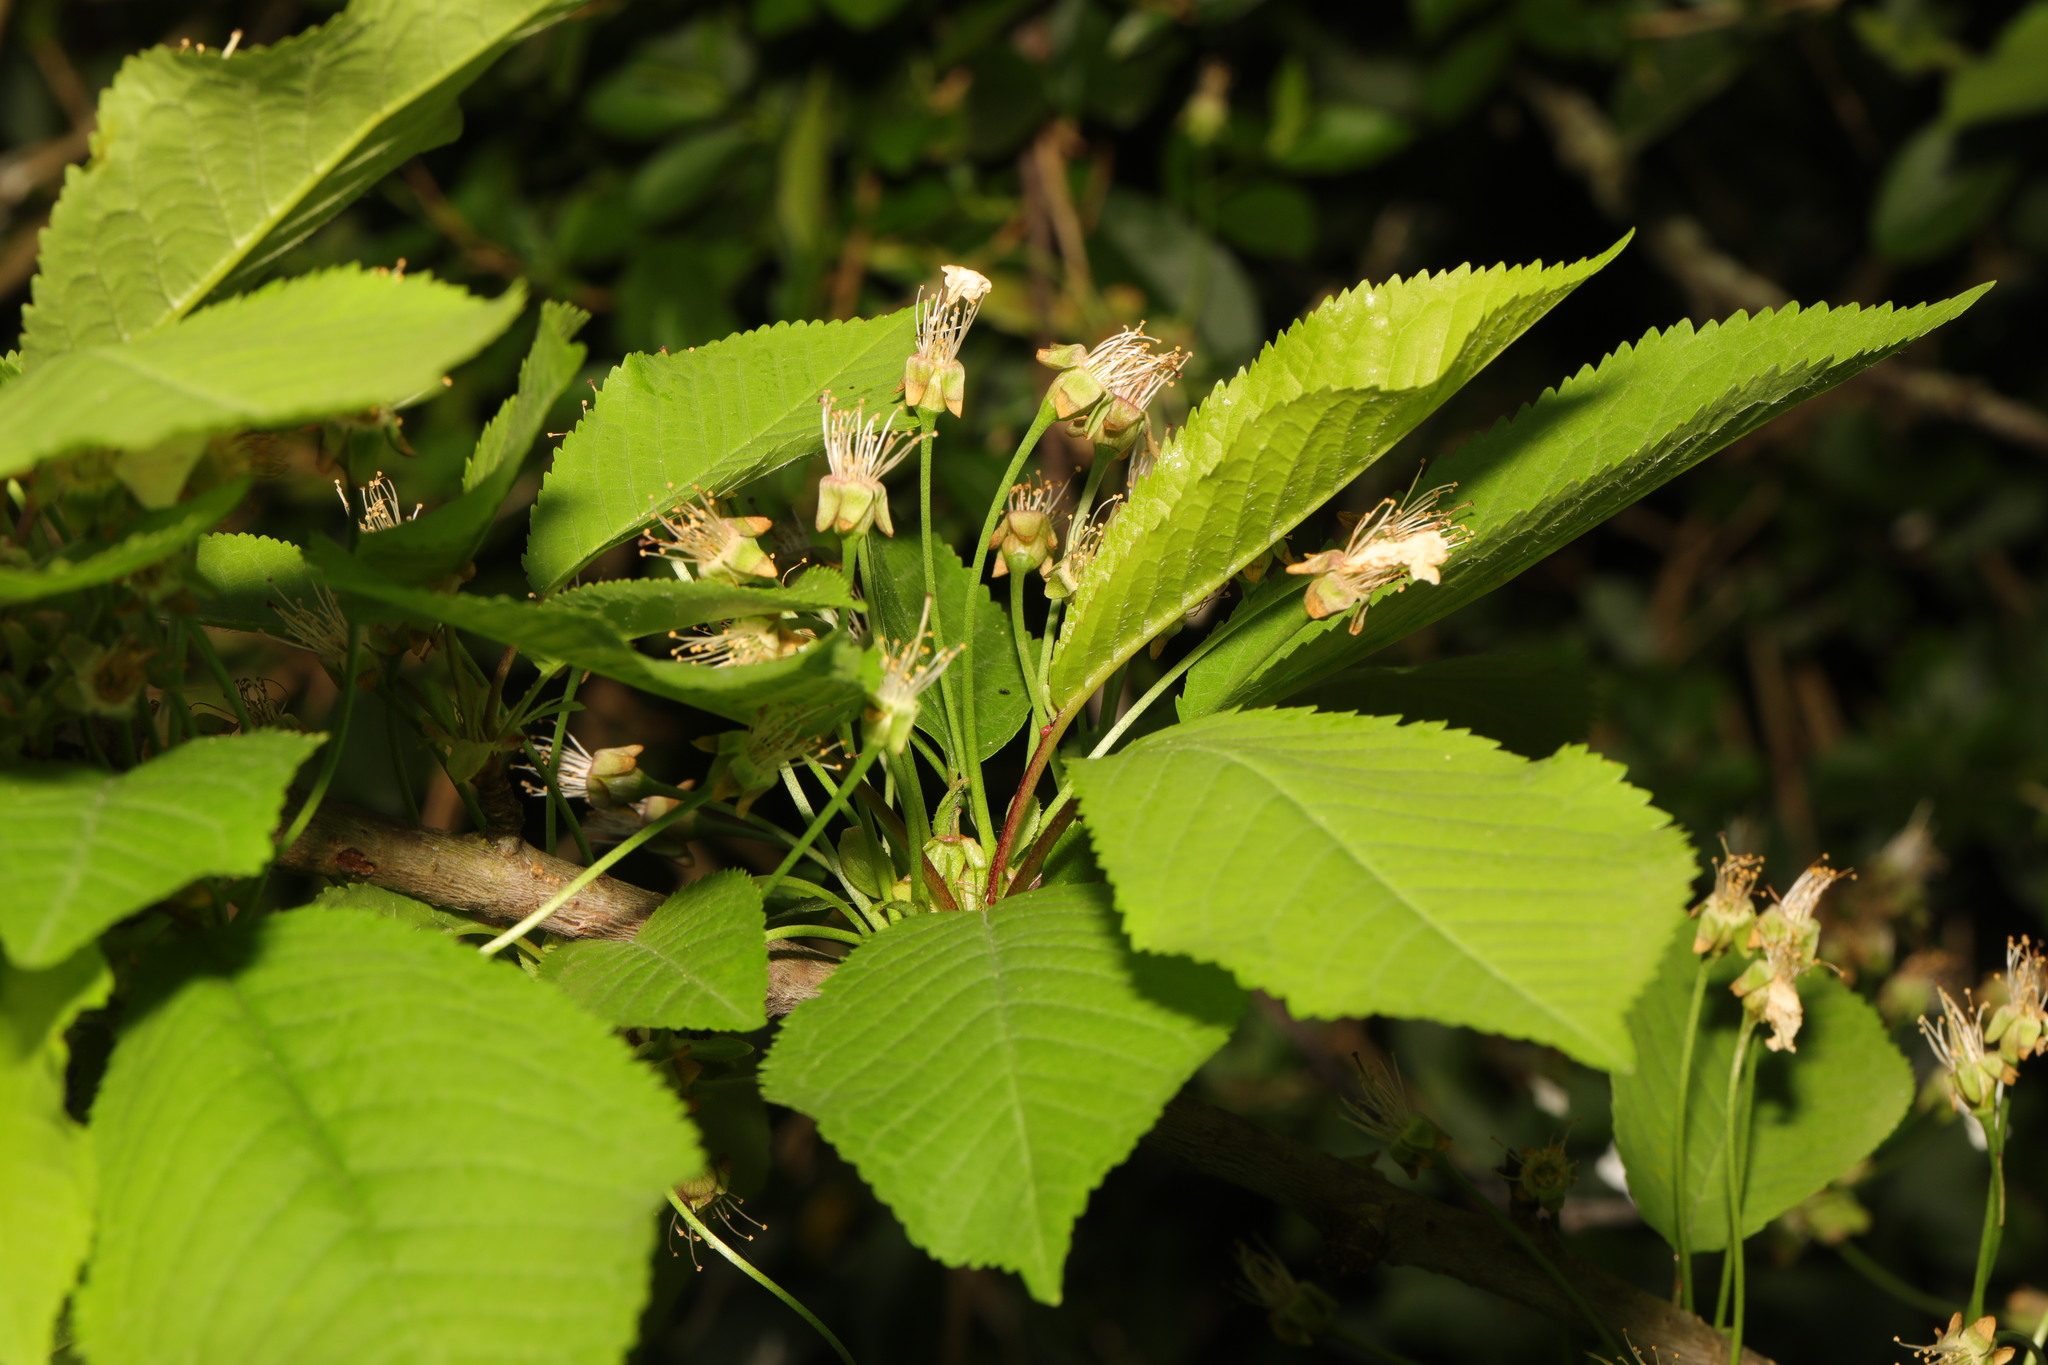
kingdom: Plantae
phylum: Tracheophyta
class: Magnoliopsida
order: Rosales
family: Rosaceae
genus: Prunus
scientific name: Prunus avium
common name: Sweet cherry
